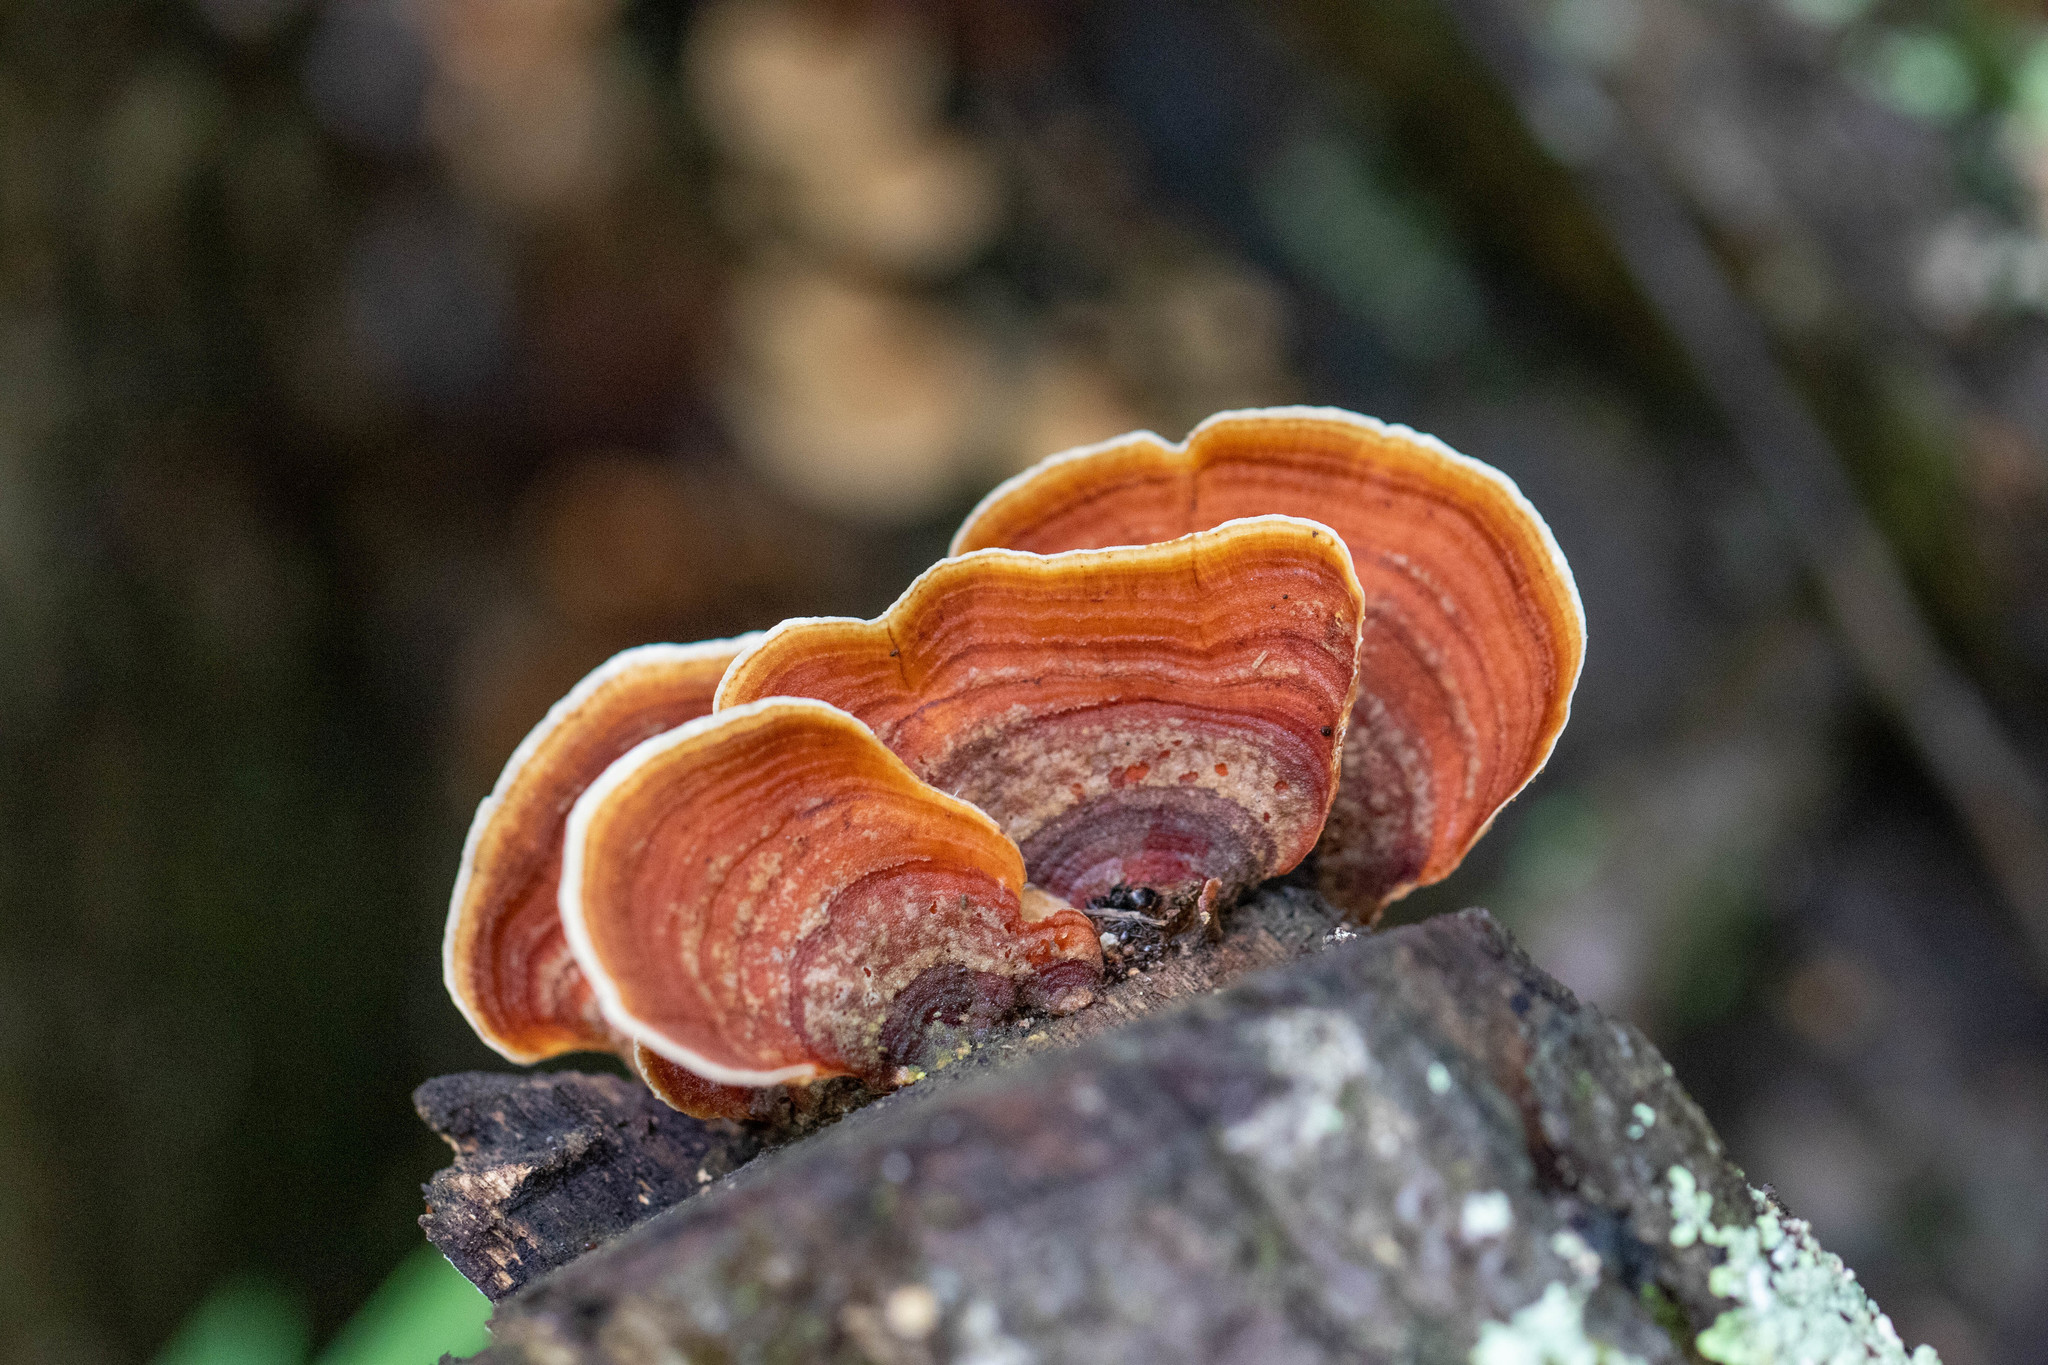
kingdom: Fungi
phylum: Basidiomycota
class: Agaricomycetes
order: Russulales
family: Stereaceae
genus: Stereum
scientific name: Stereum ostrea
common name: False turkeytail
